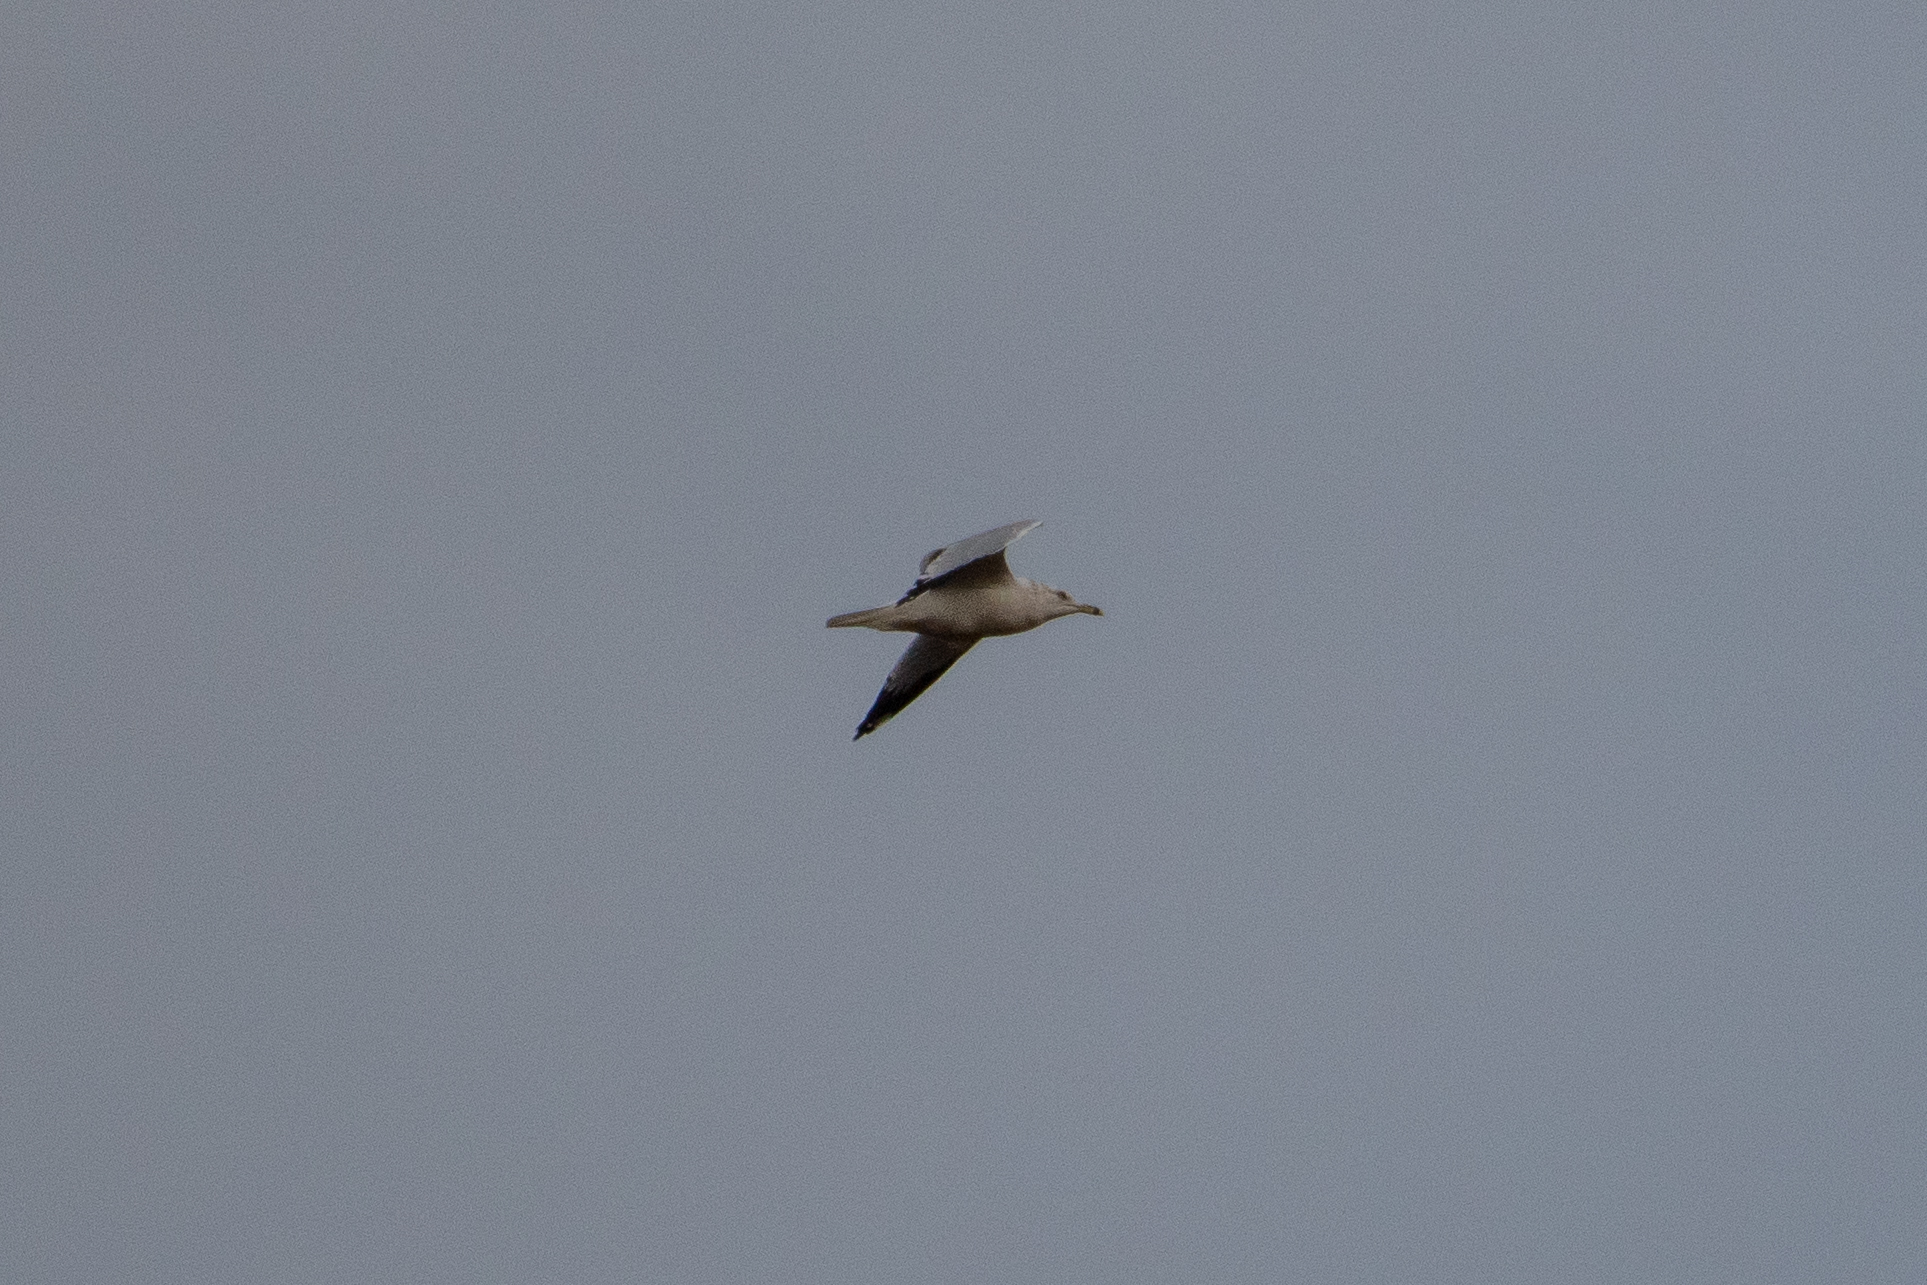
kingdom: Animalia
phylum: Chordata
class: Aves
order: Accipitriformes
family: Accipitridae
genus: Elanus
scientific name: Elanus leucurus
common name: White-tailed kite
